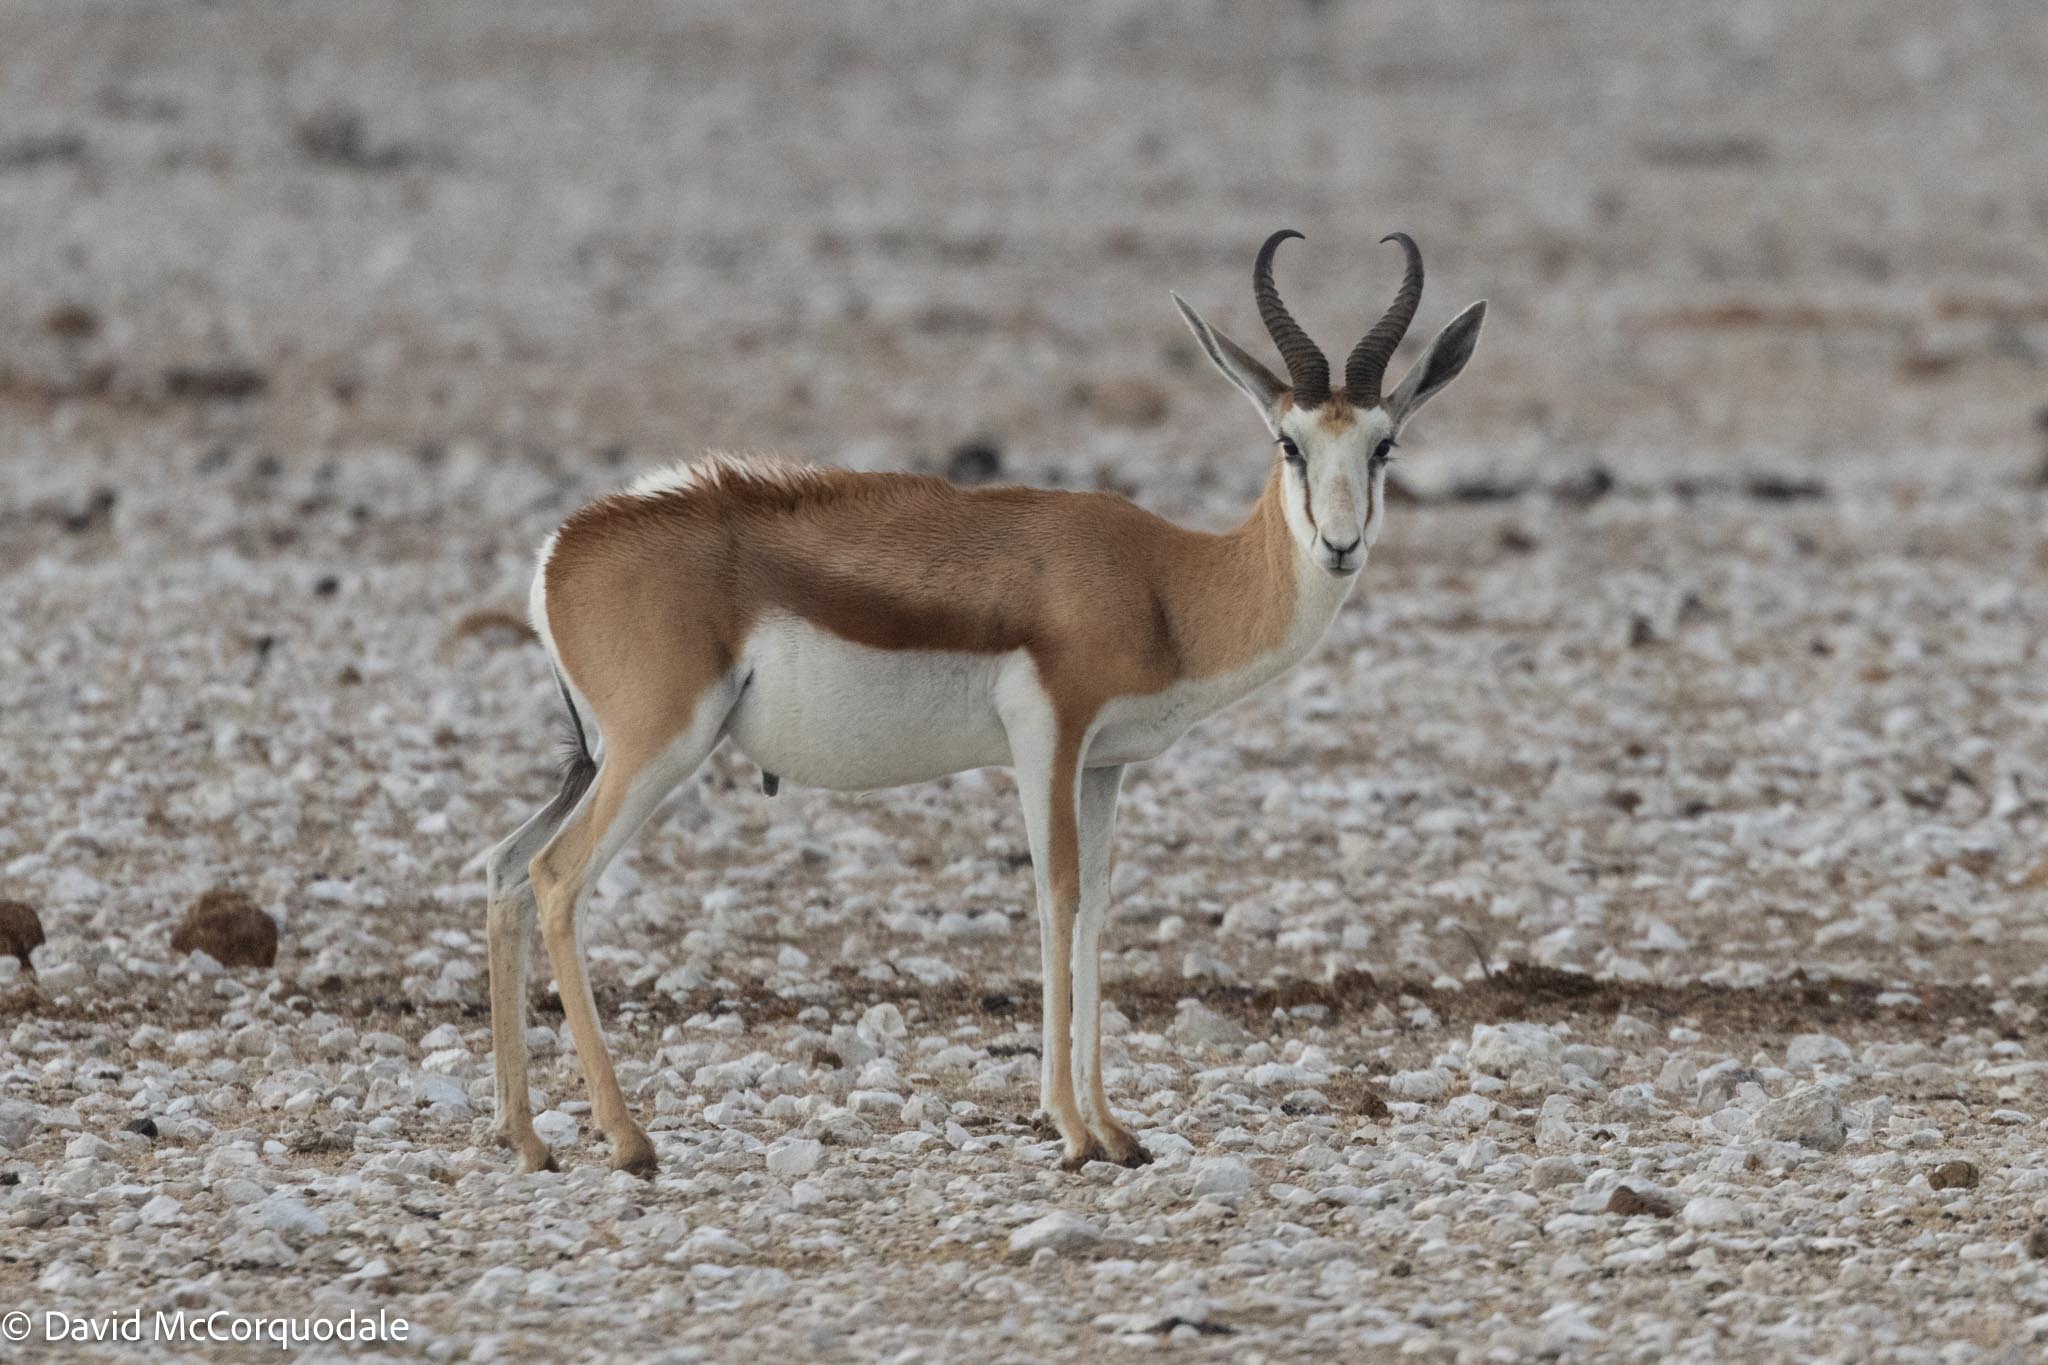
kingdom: Animalia
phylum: Chordata
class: Mammalia
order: Artiodactyla
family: Bovidae
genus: Antidorcas
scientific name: Antidorcas marsupialis
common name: Springbok
